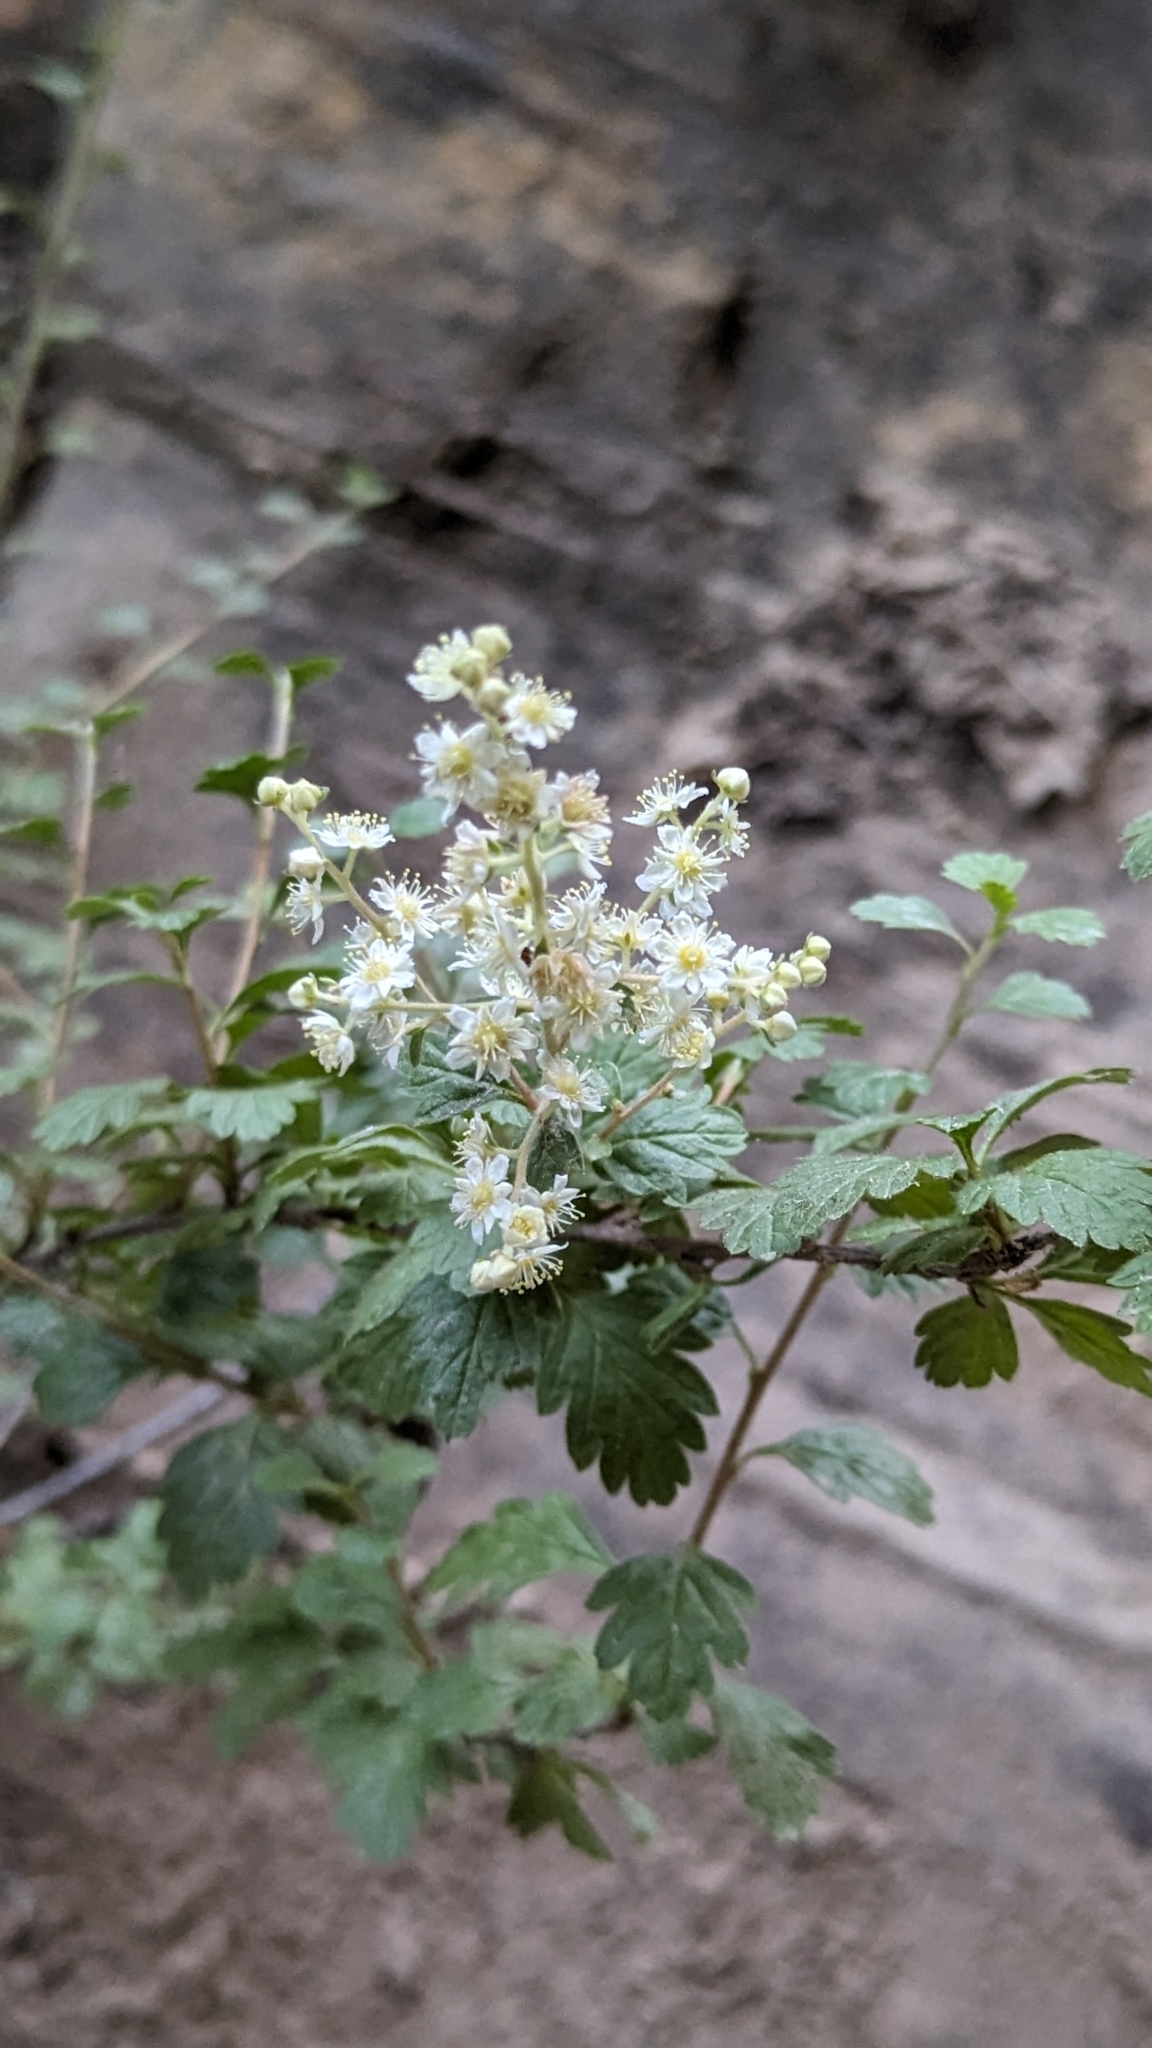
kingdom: Plantae
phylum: Tracheophyta
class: Magnoliopsida
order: Rosales
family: Rosaceae
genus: Holodiscus
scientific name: Holodiscus discolor
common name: Oceanspray
